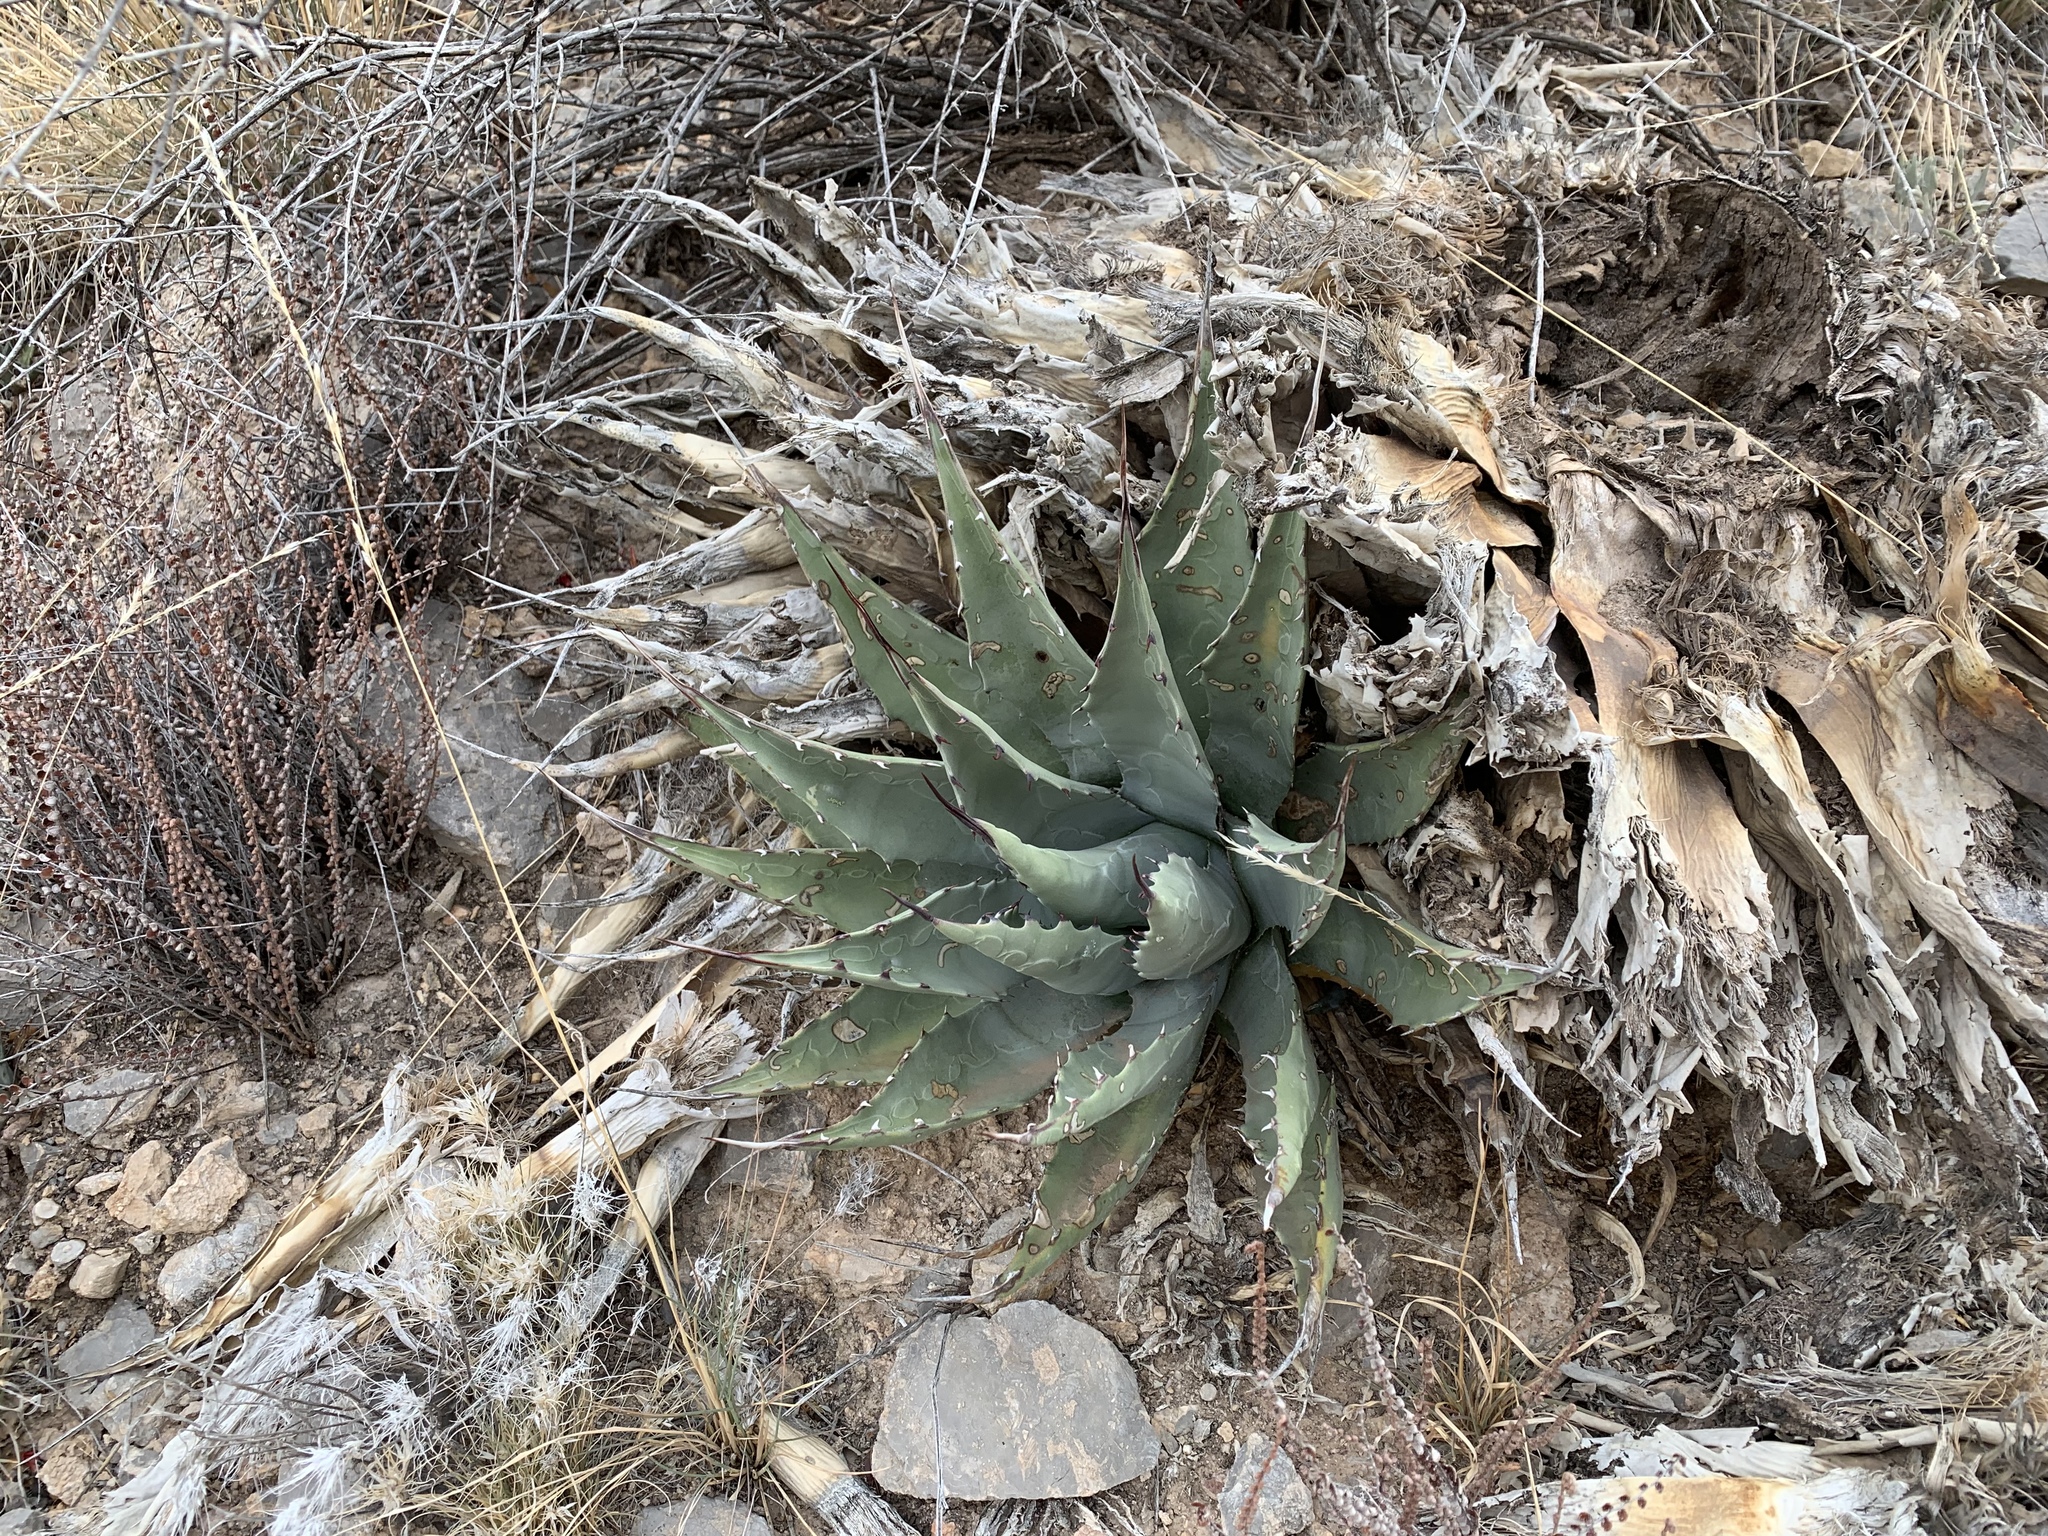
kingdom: Plantae
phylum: Tracheophyta
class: Liliopsida
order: Asparagales
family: Asparagaceae
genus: Agave
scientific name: Agave parryi
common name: Parry's agave
